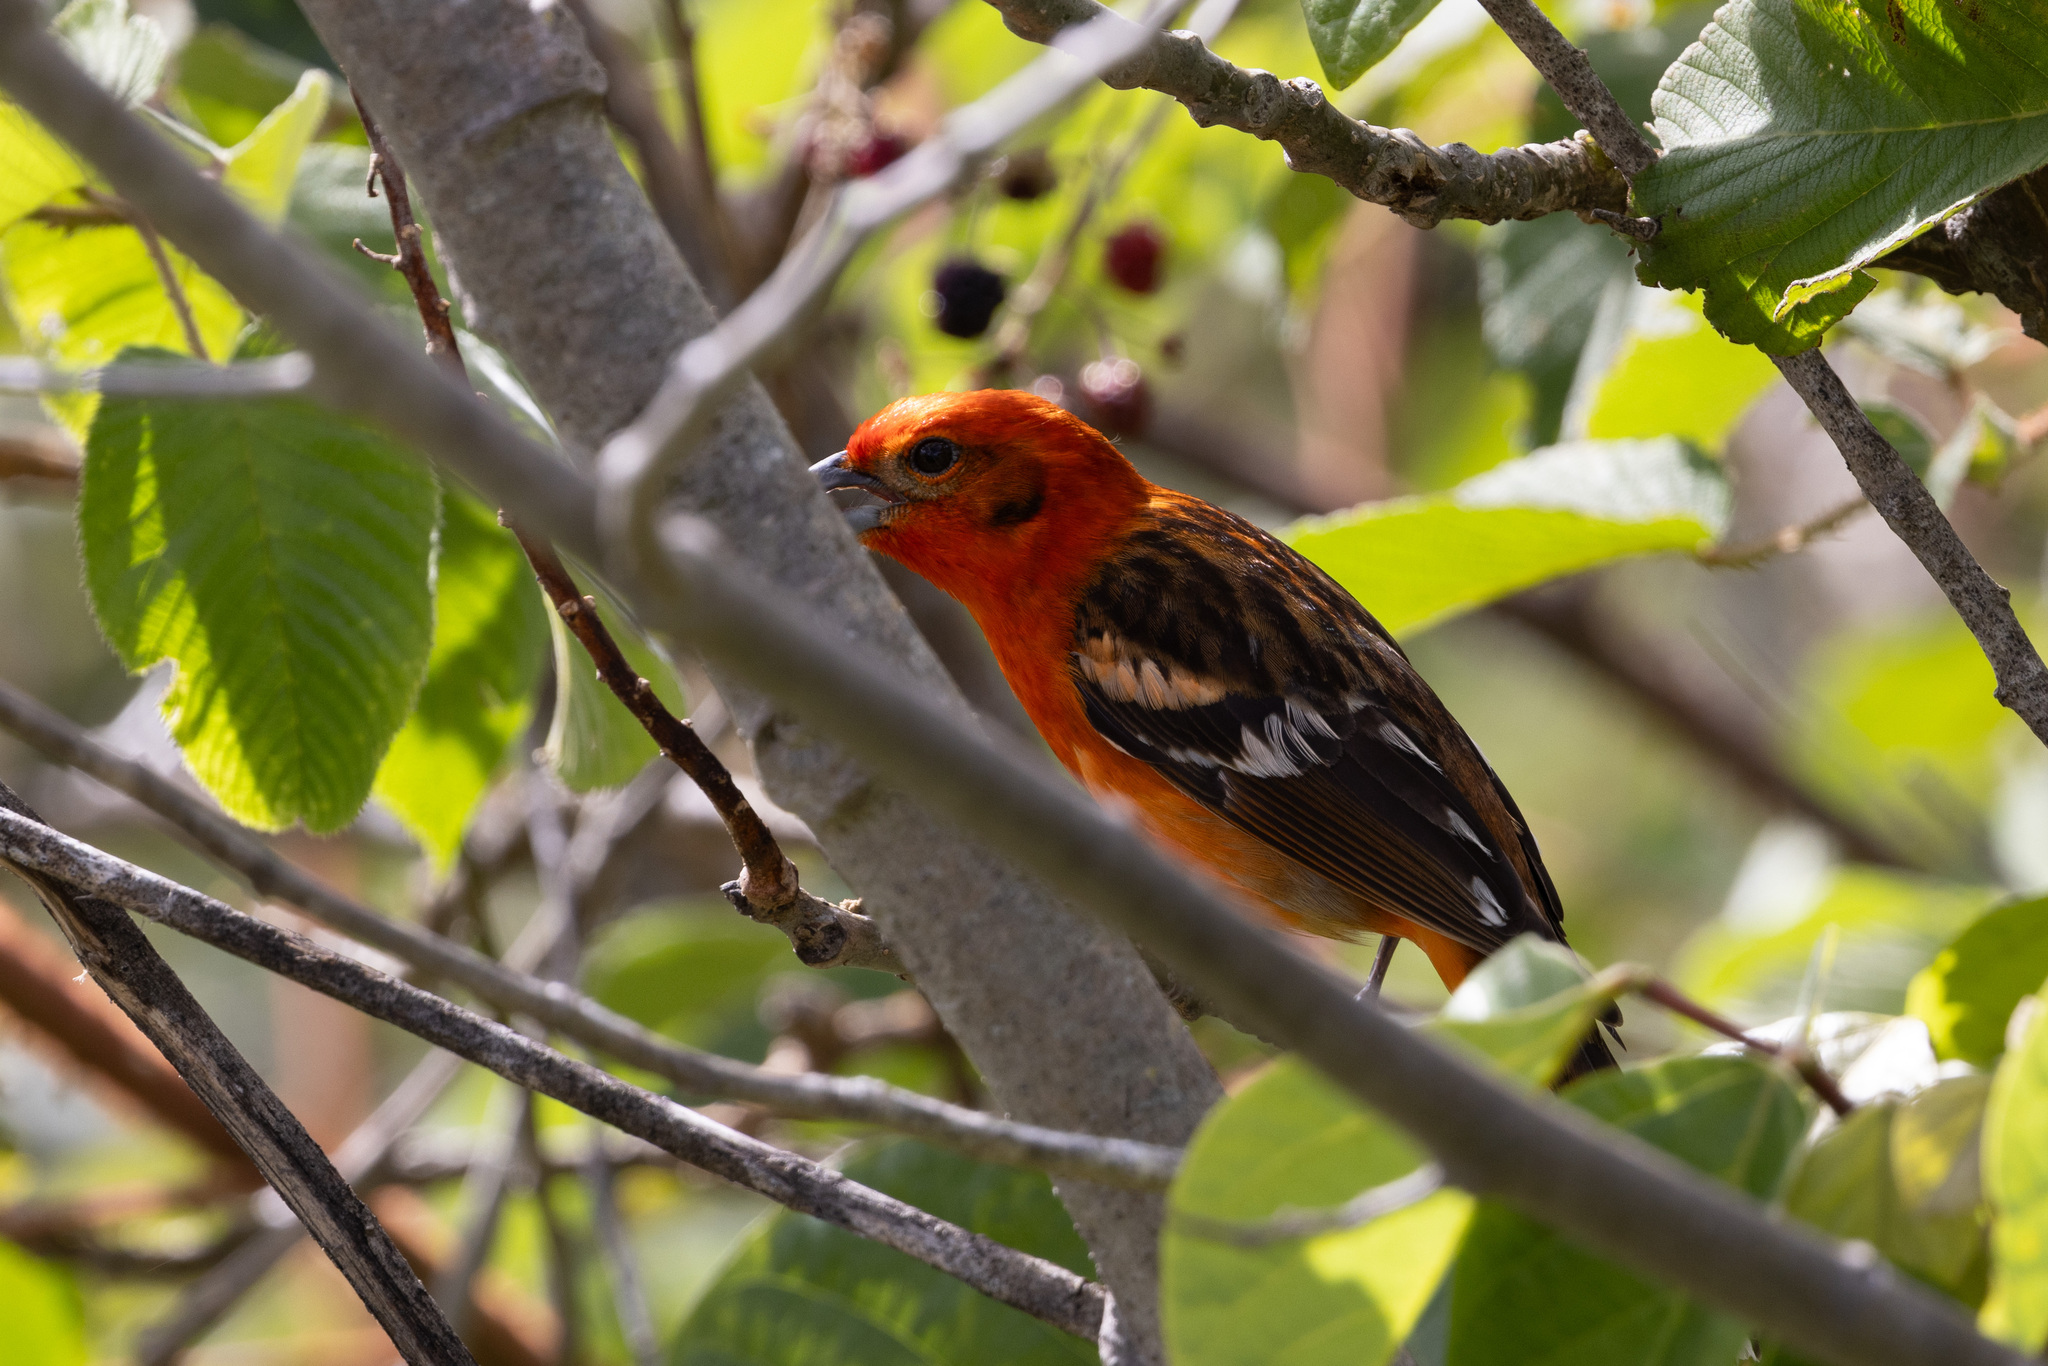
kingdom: Animalia
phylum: Chordata
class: Aves
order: Passeriformes
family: Cardinalidae
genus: Piranga
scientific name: Piranga bidentata
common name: Flame-colored tanager
